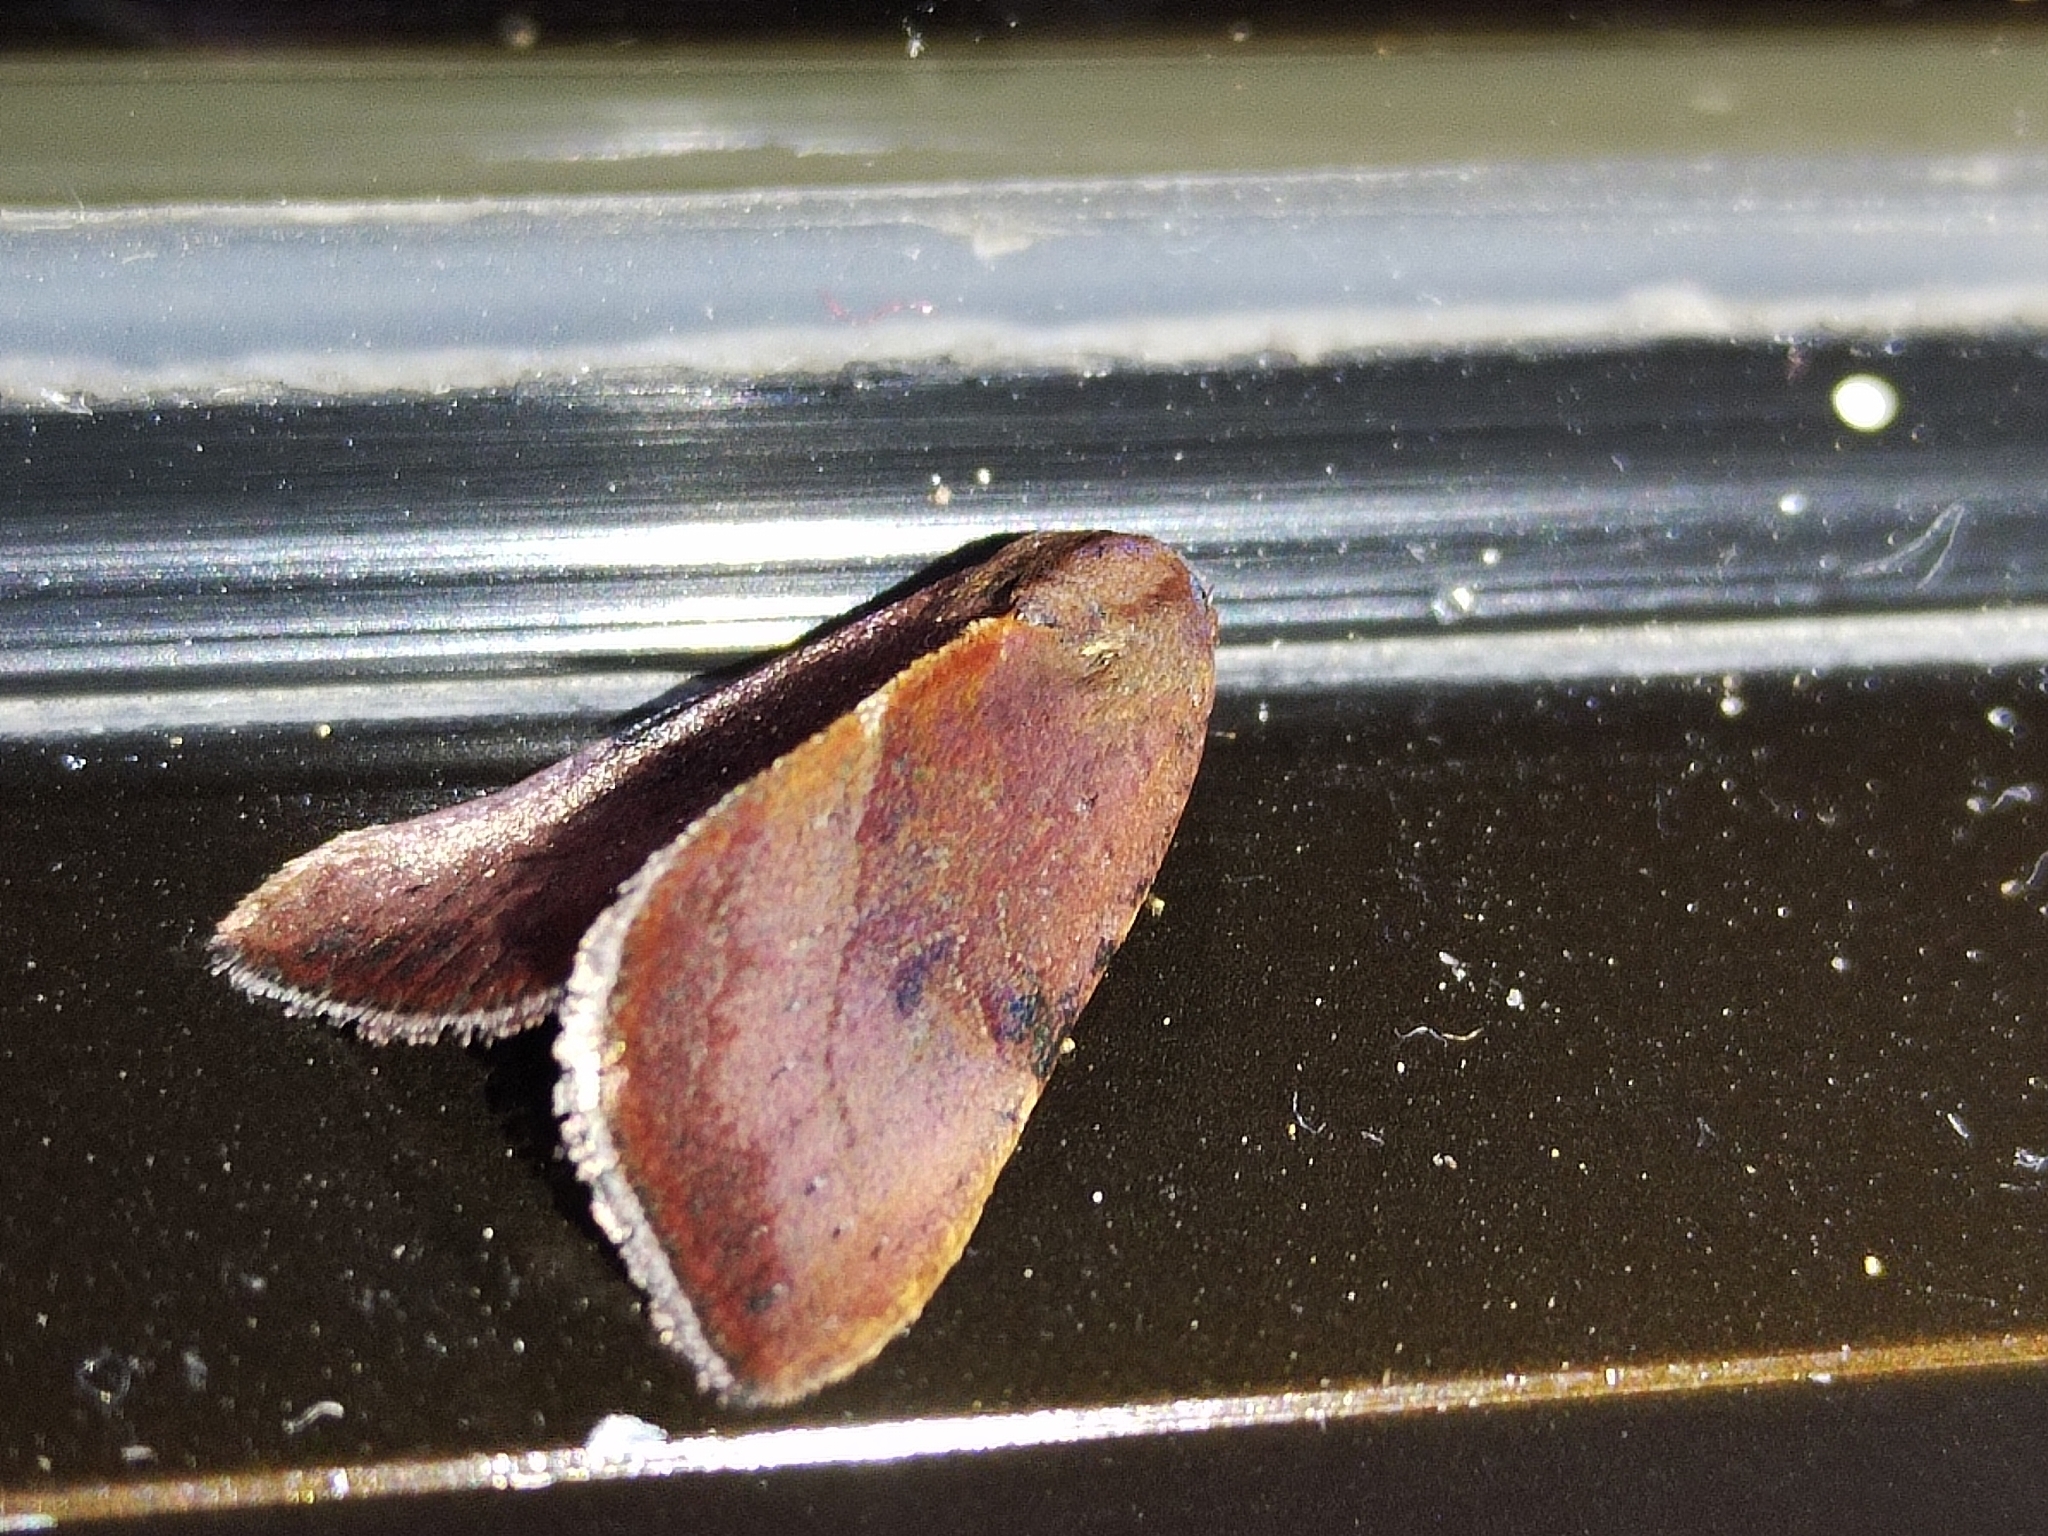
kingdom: Animalia
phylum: Arthropoda
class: Insecta
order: Lepidoptera
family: Noctuidae
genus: Galgula
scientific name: Galgula partita
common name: Wedgeling
